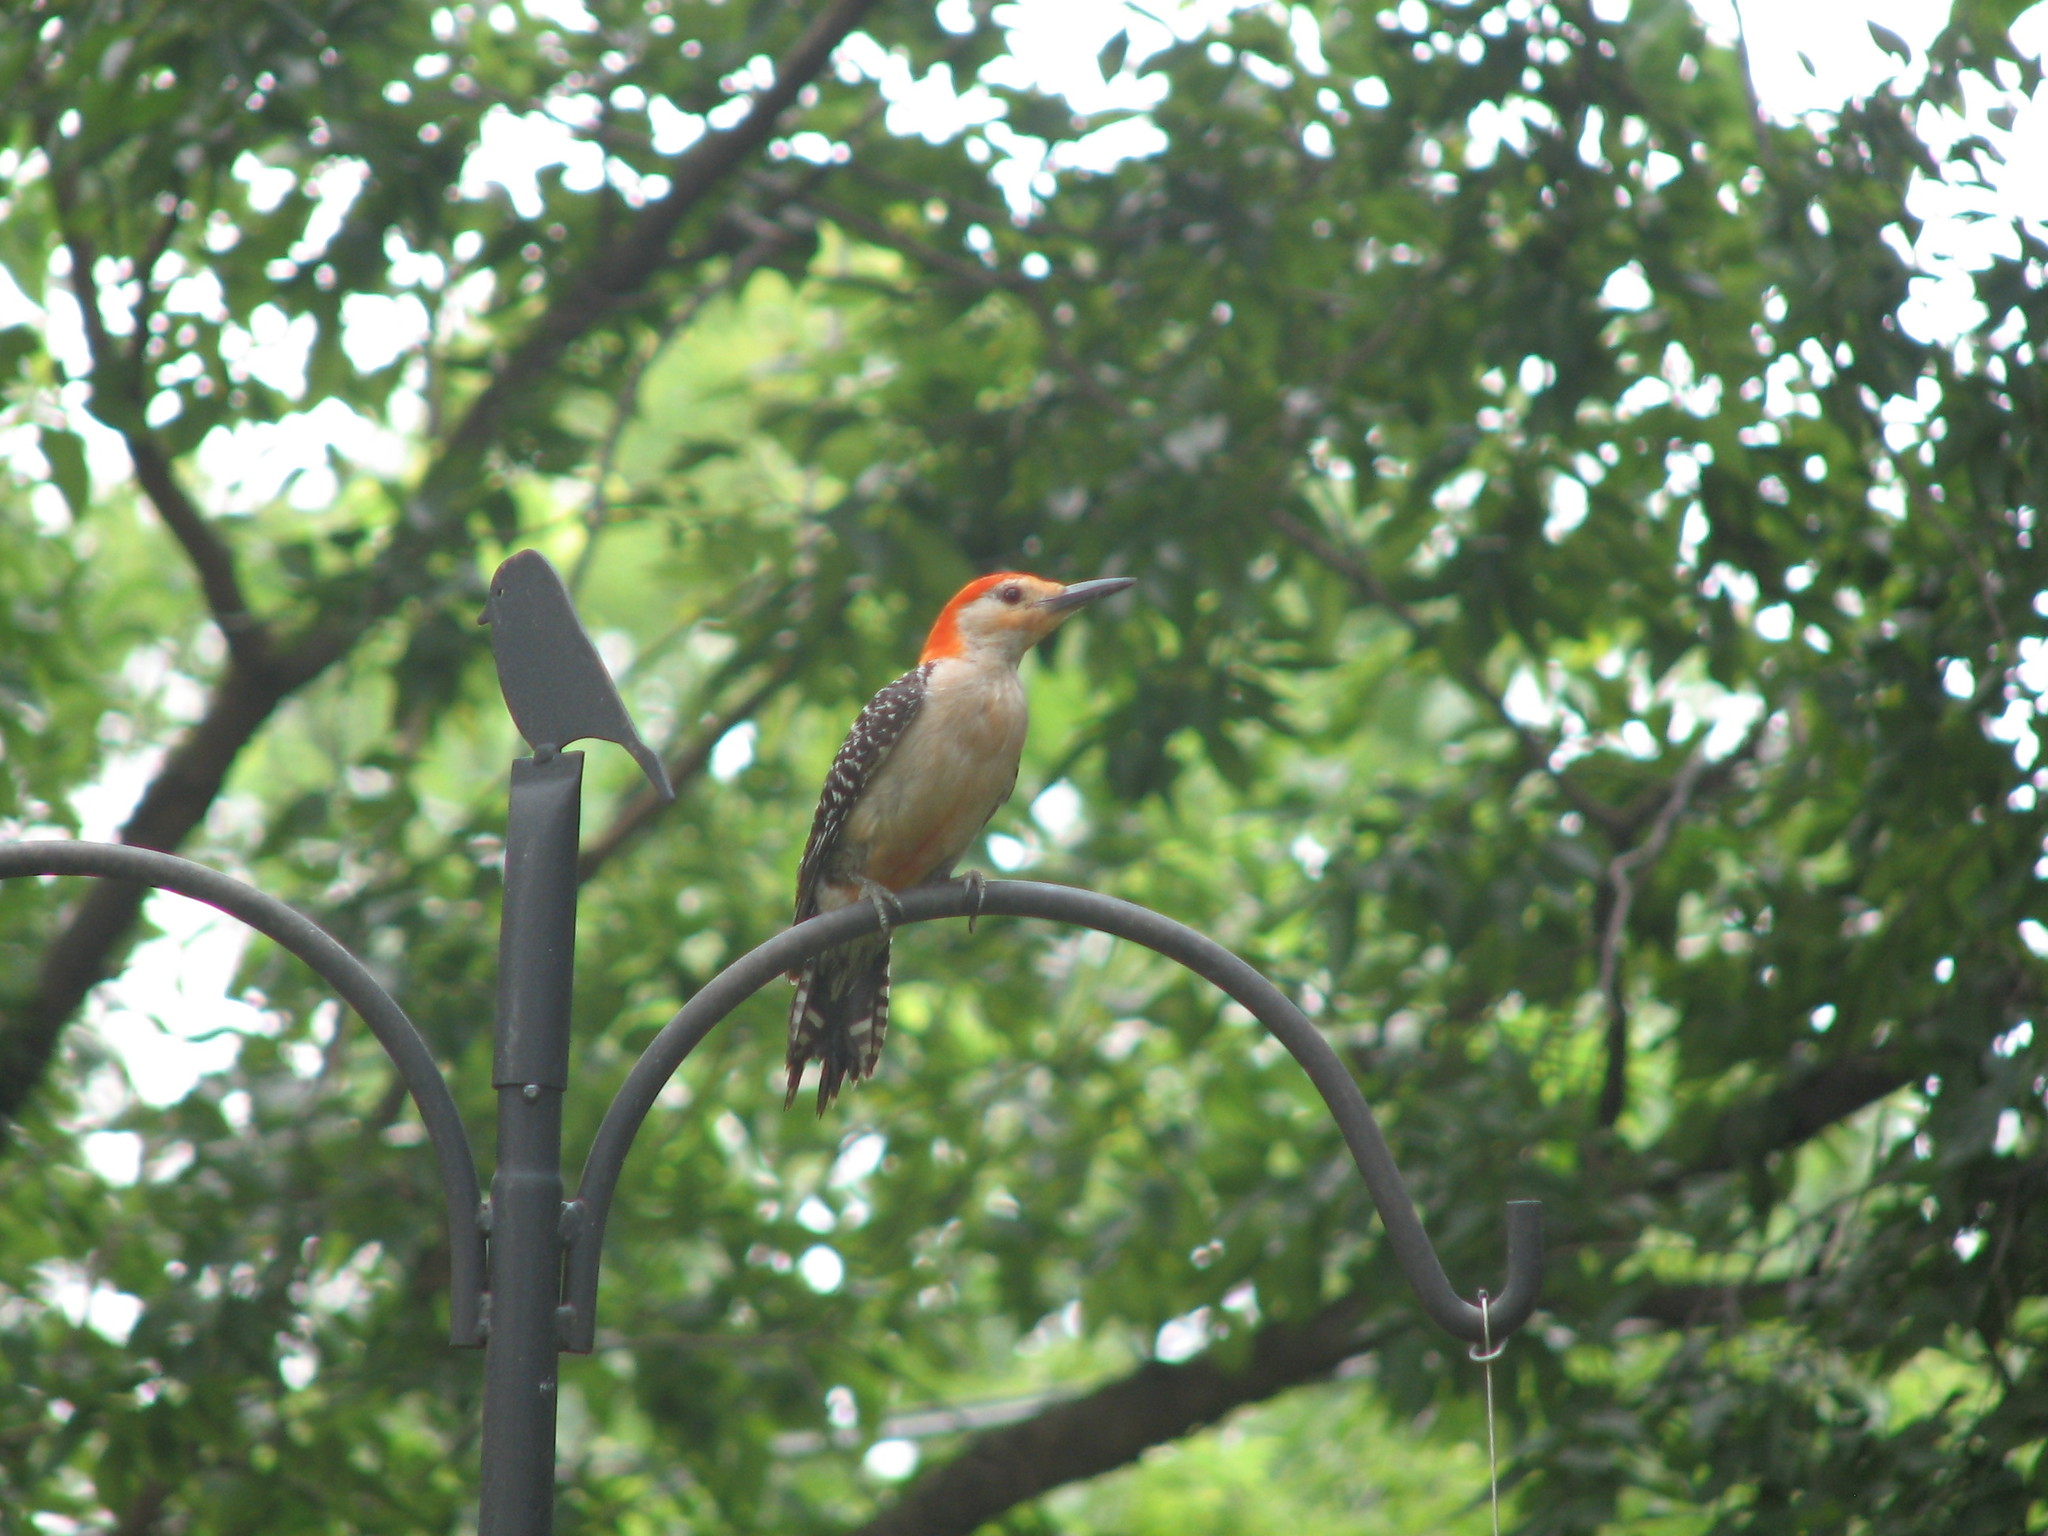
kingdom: Animalia
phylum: Chordata
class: Aves
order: Piciformes
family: Picidae
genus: Melanerpes
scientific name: Melanerpes carolinus
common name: Red-bellied woodpecker
